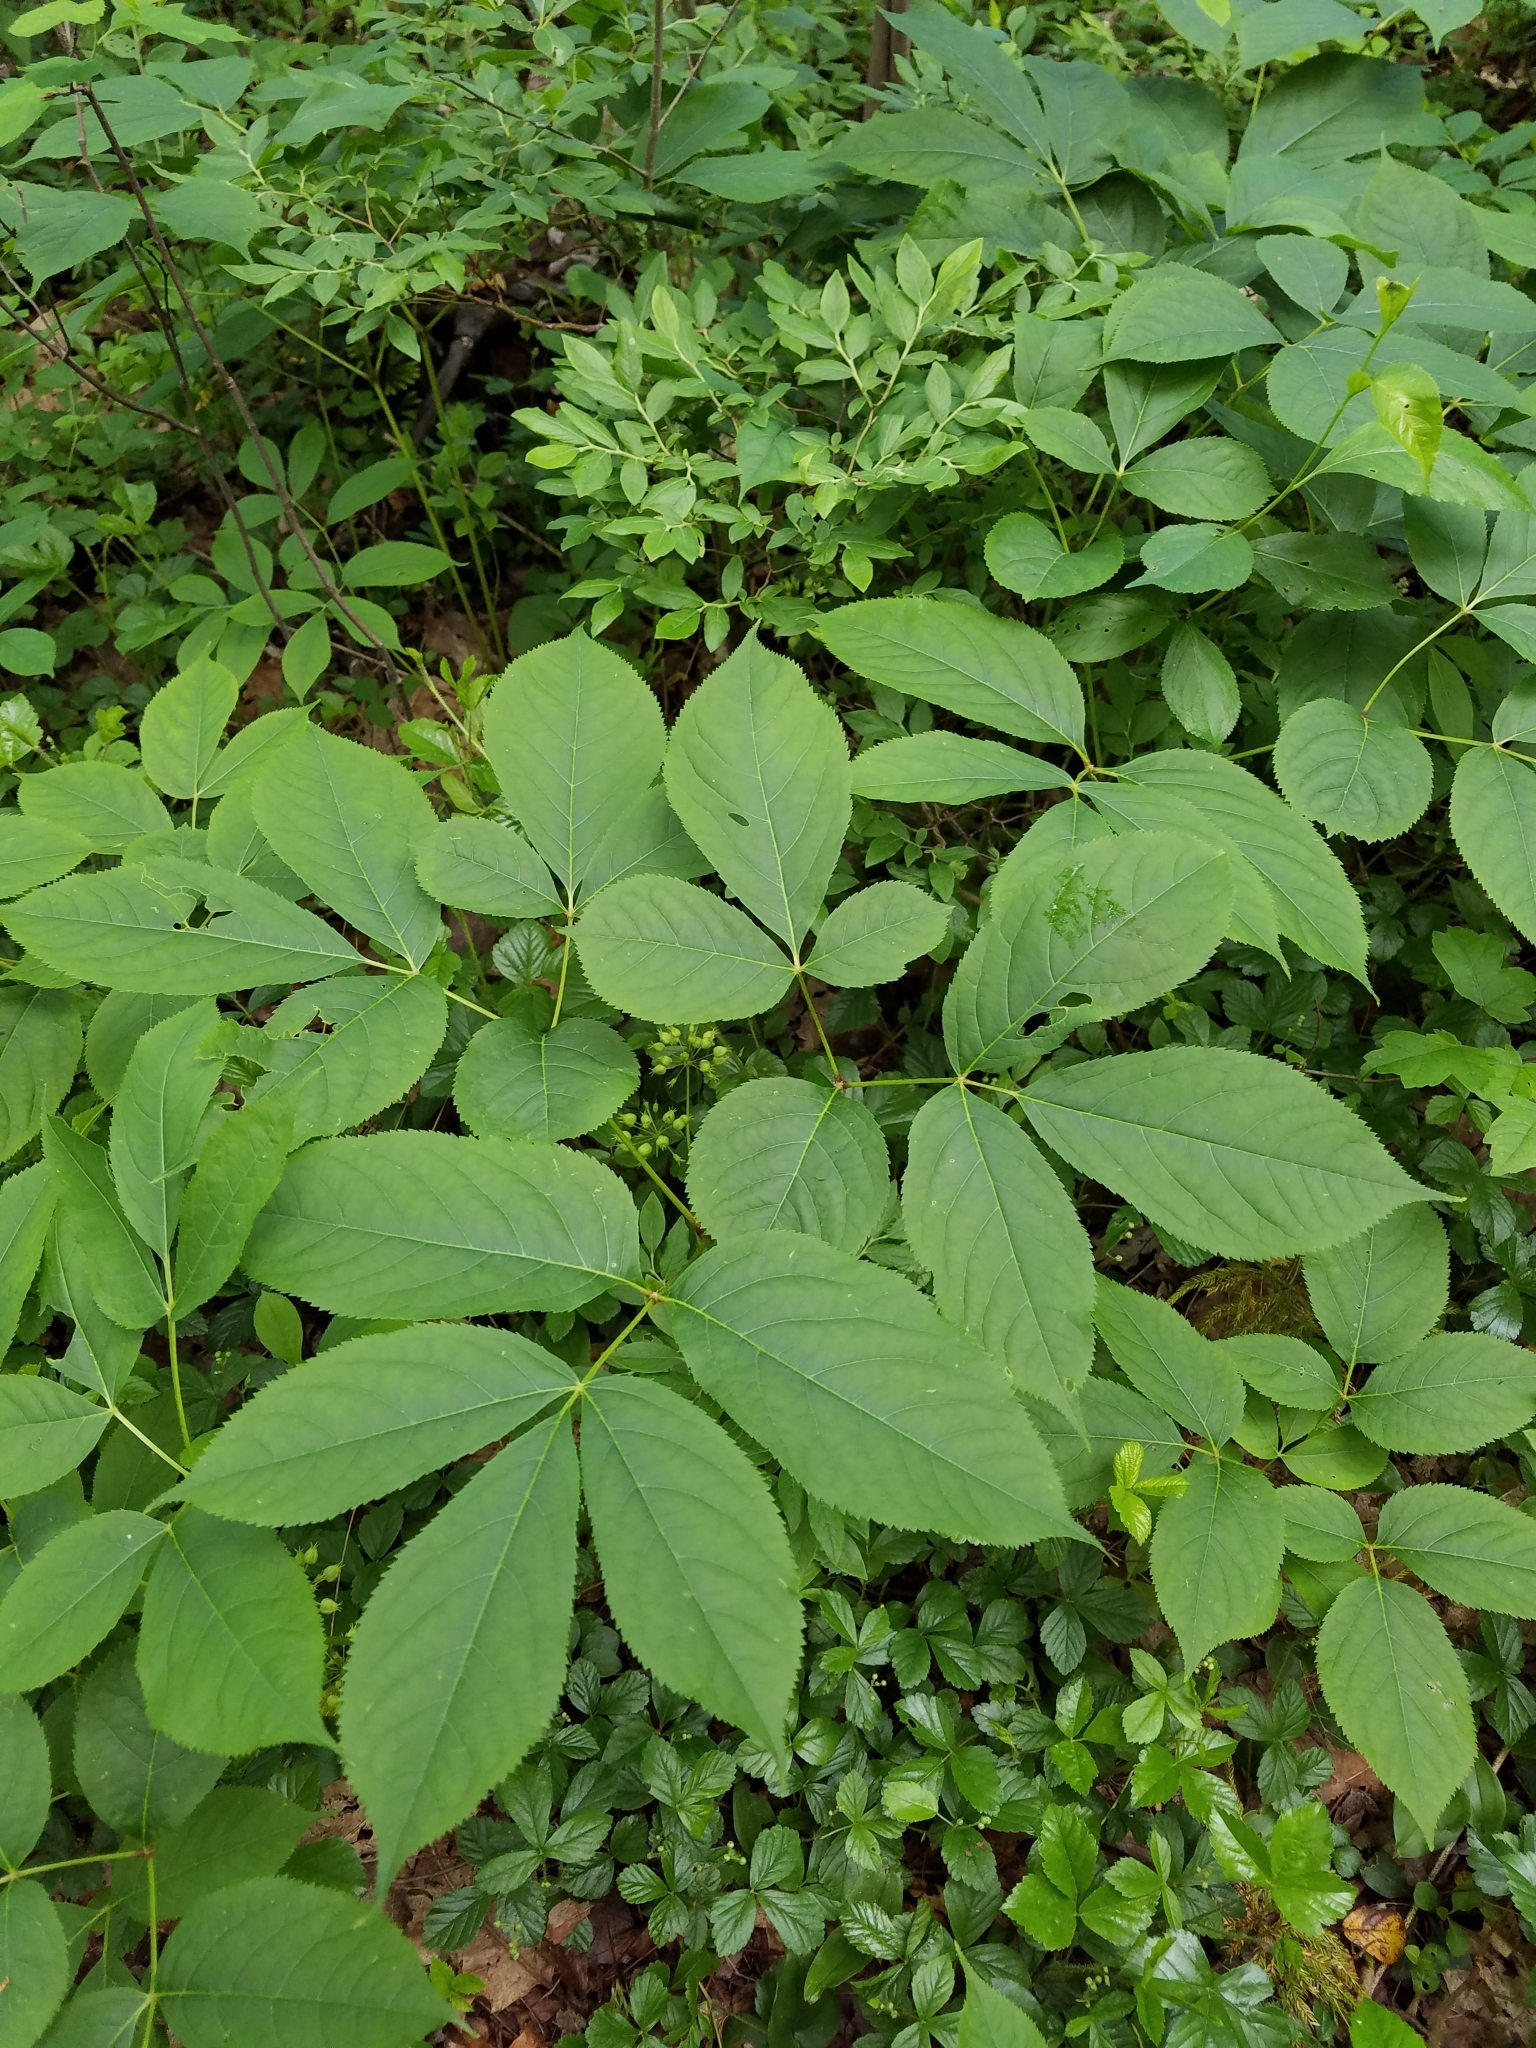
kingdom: Plantae
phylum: Tracheophyta
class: Magnoliopsida
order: Apiales
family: Araliaceae
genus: Aralia
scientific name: Aralia nudicaulis
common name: Wild sarsaparilla
